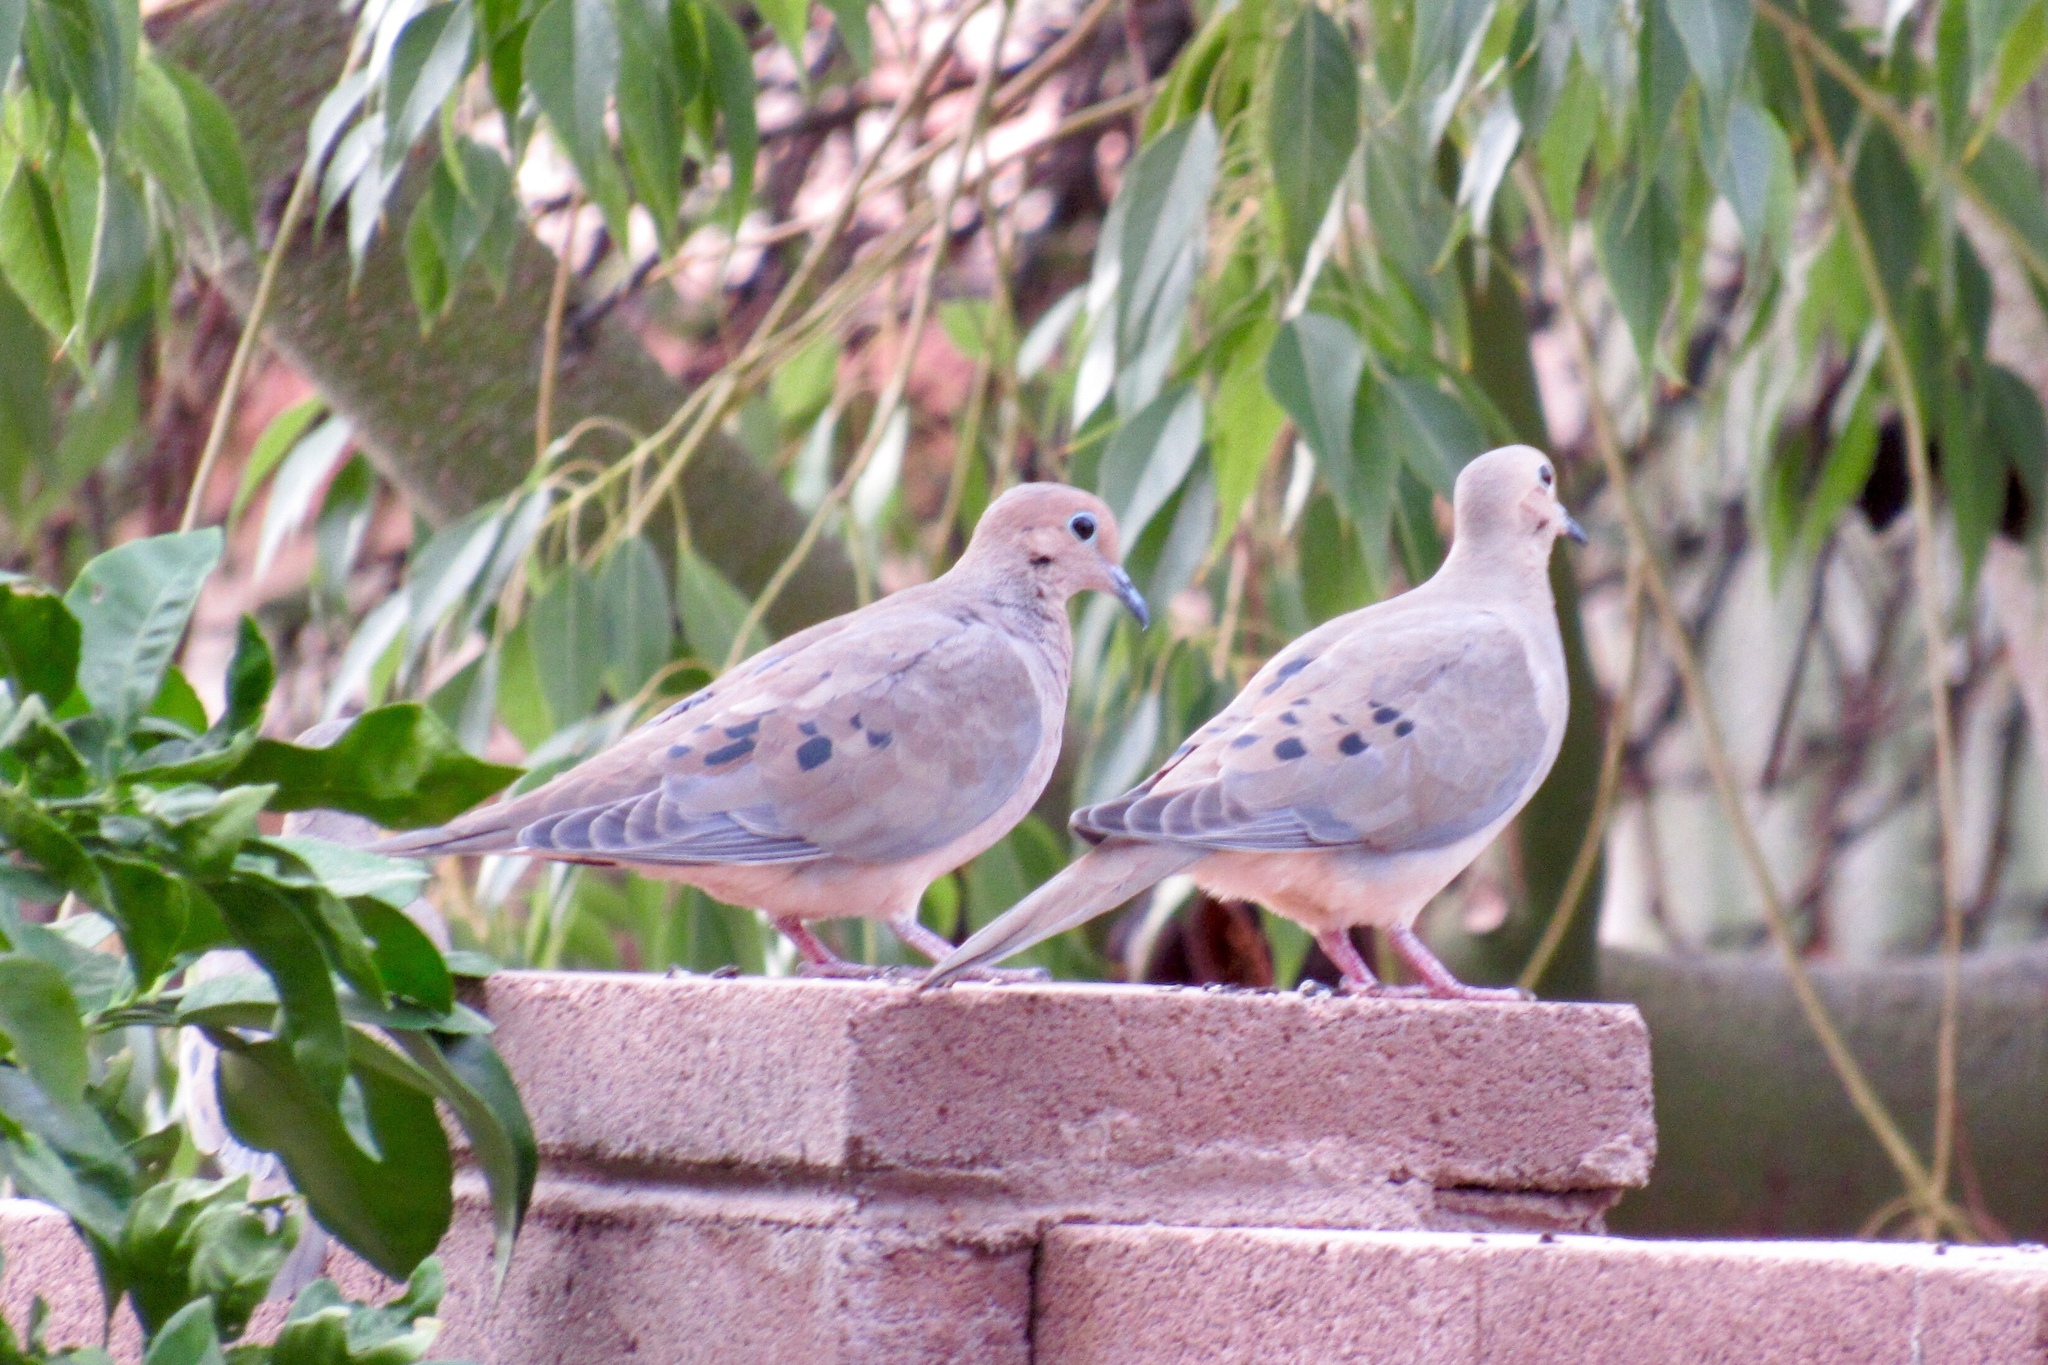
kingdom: Animalia
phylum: Chordata
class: Aves
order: Columbiformes
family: Columbidae
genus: Zenaida
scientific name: Zenaida macroura
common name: Mourning dove
